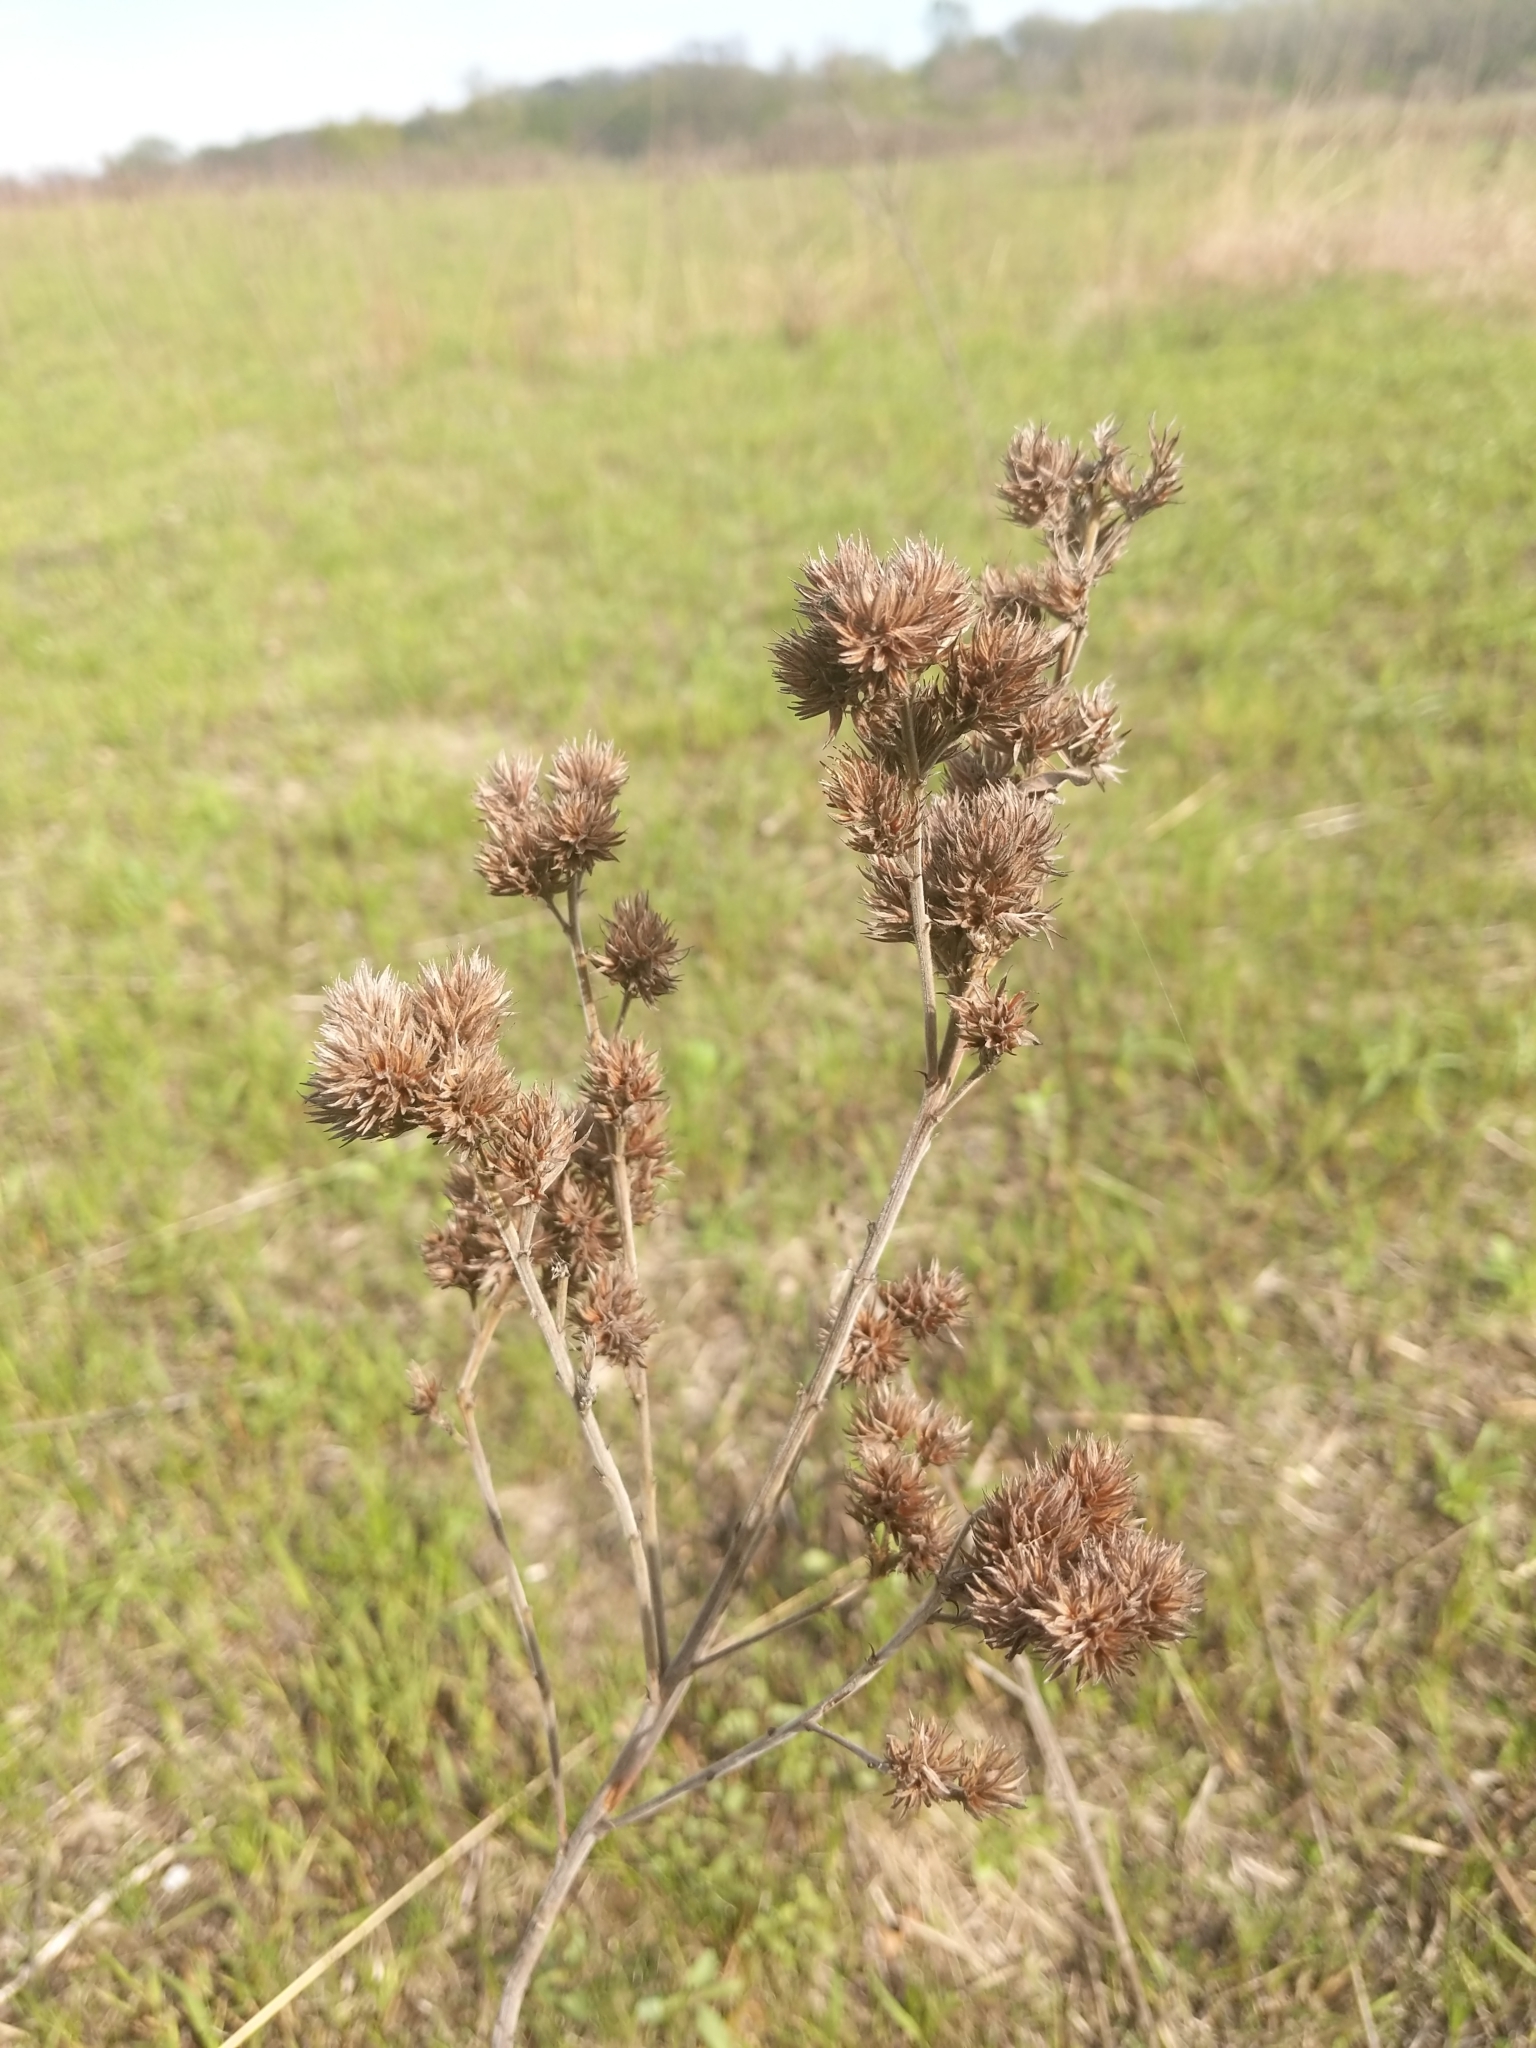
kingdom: Plantae
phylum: Tracheophyta
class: Magnoliopsida
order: Fabales
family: Fabaceae
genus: Lespedeza
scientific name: Lespedeza capitata
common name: Dusty clover
